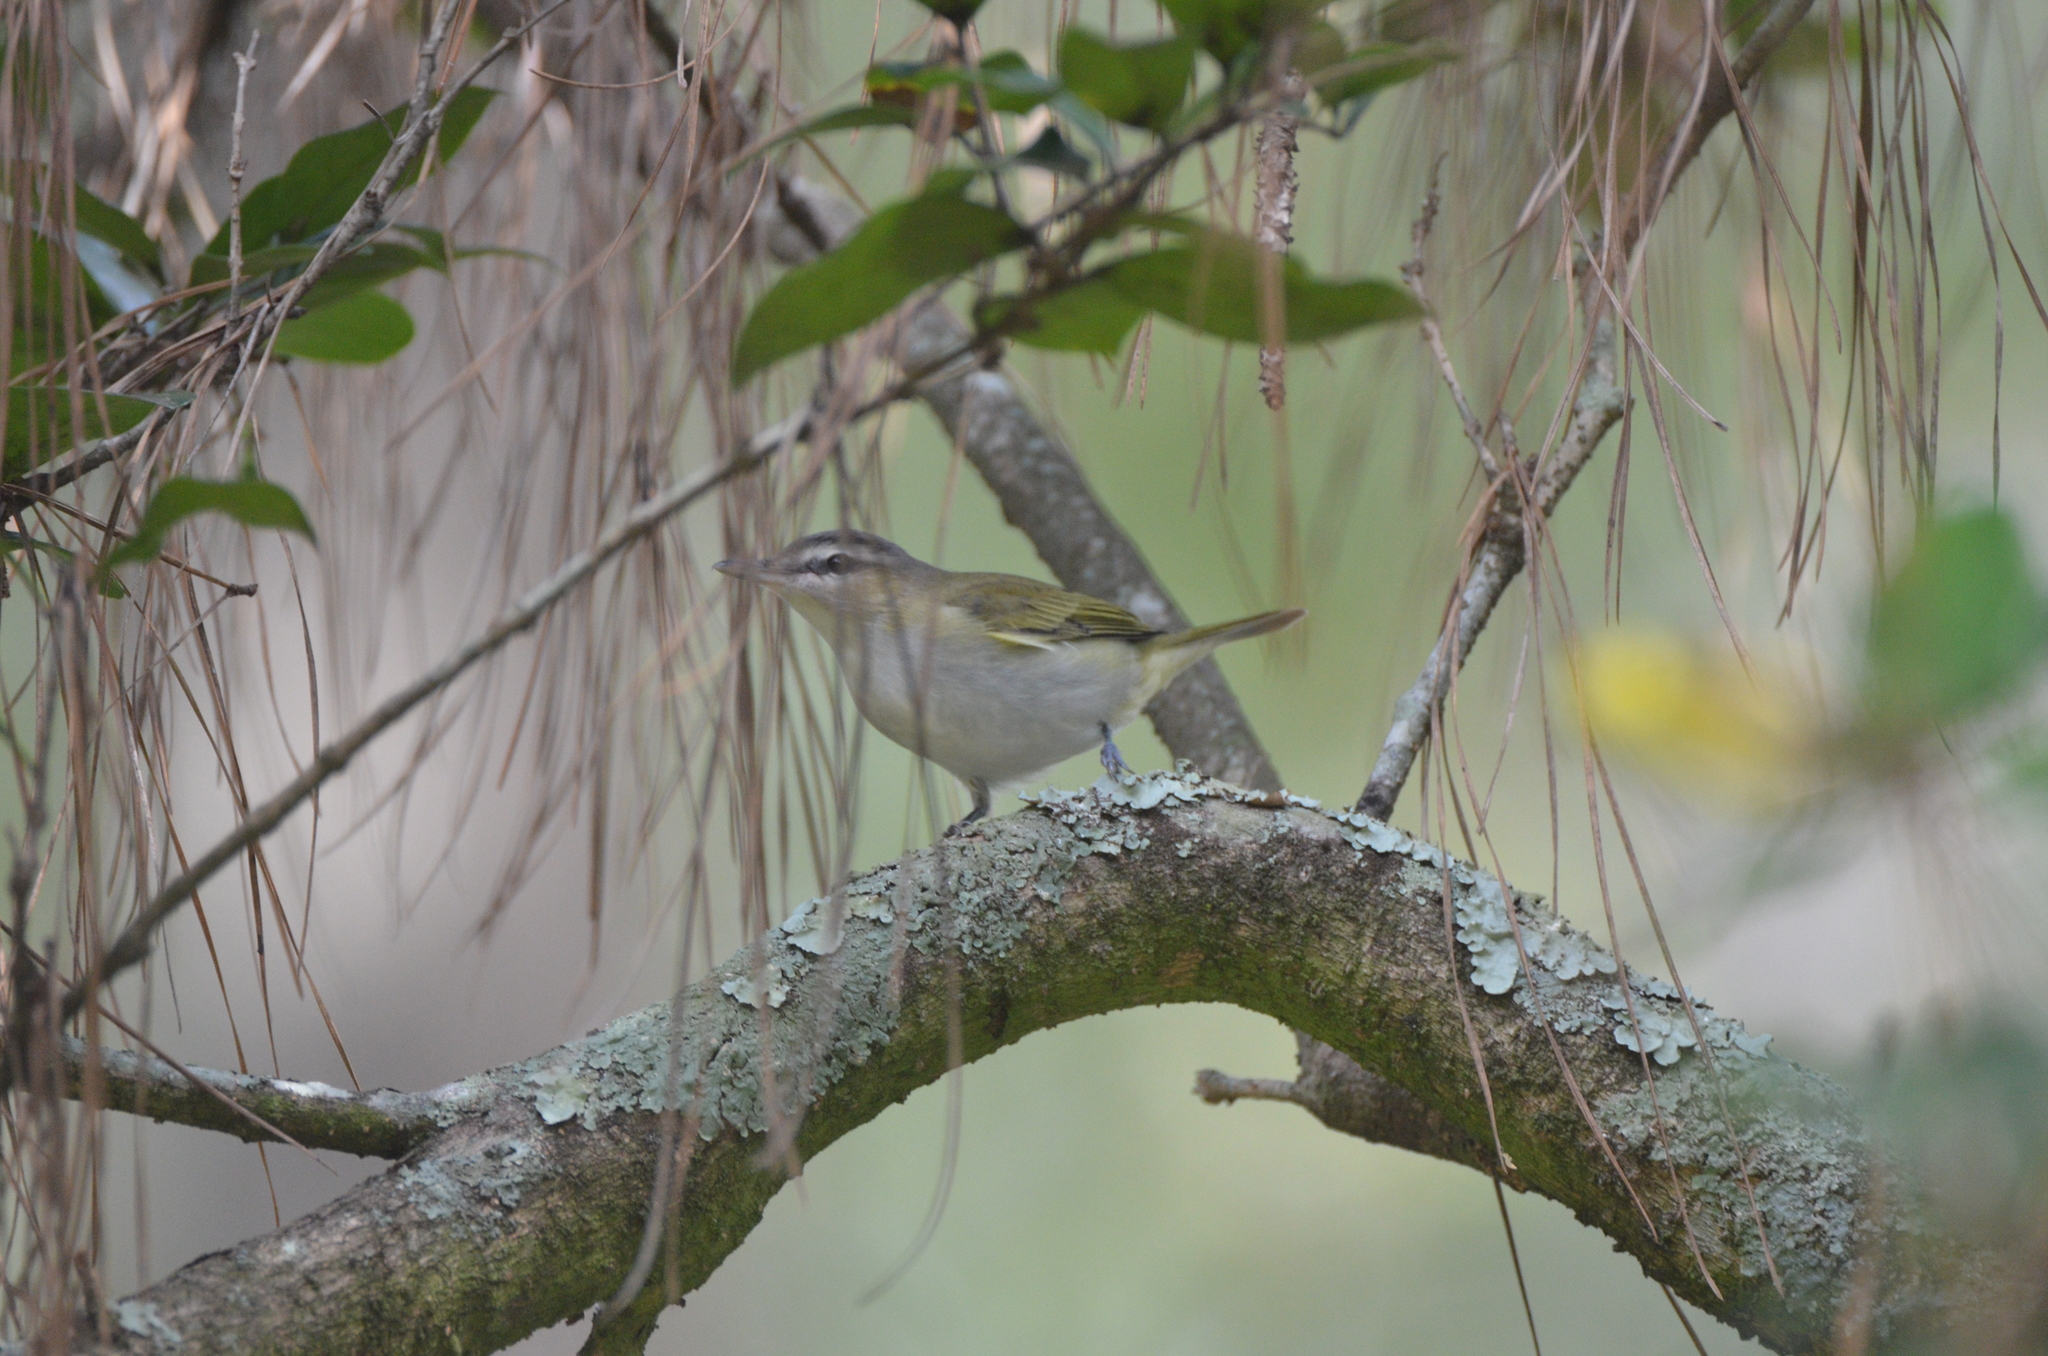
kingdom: Animalia
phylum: Chordata
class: Aves
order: Passeriformes
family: Vireonidae
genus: Vireo
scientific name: Vireo olivaceus
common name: Red-eyed vireo
